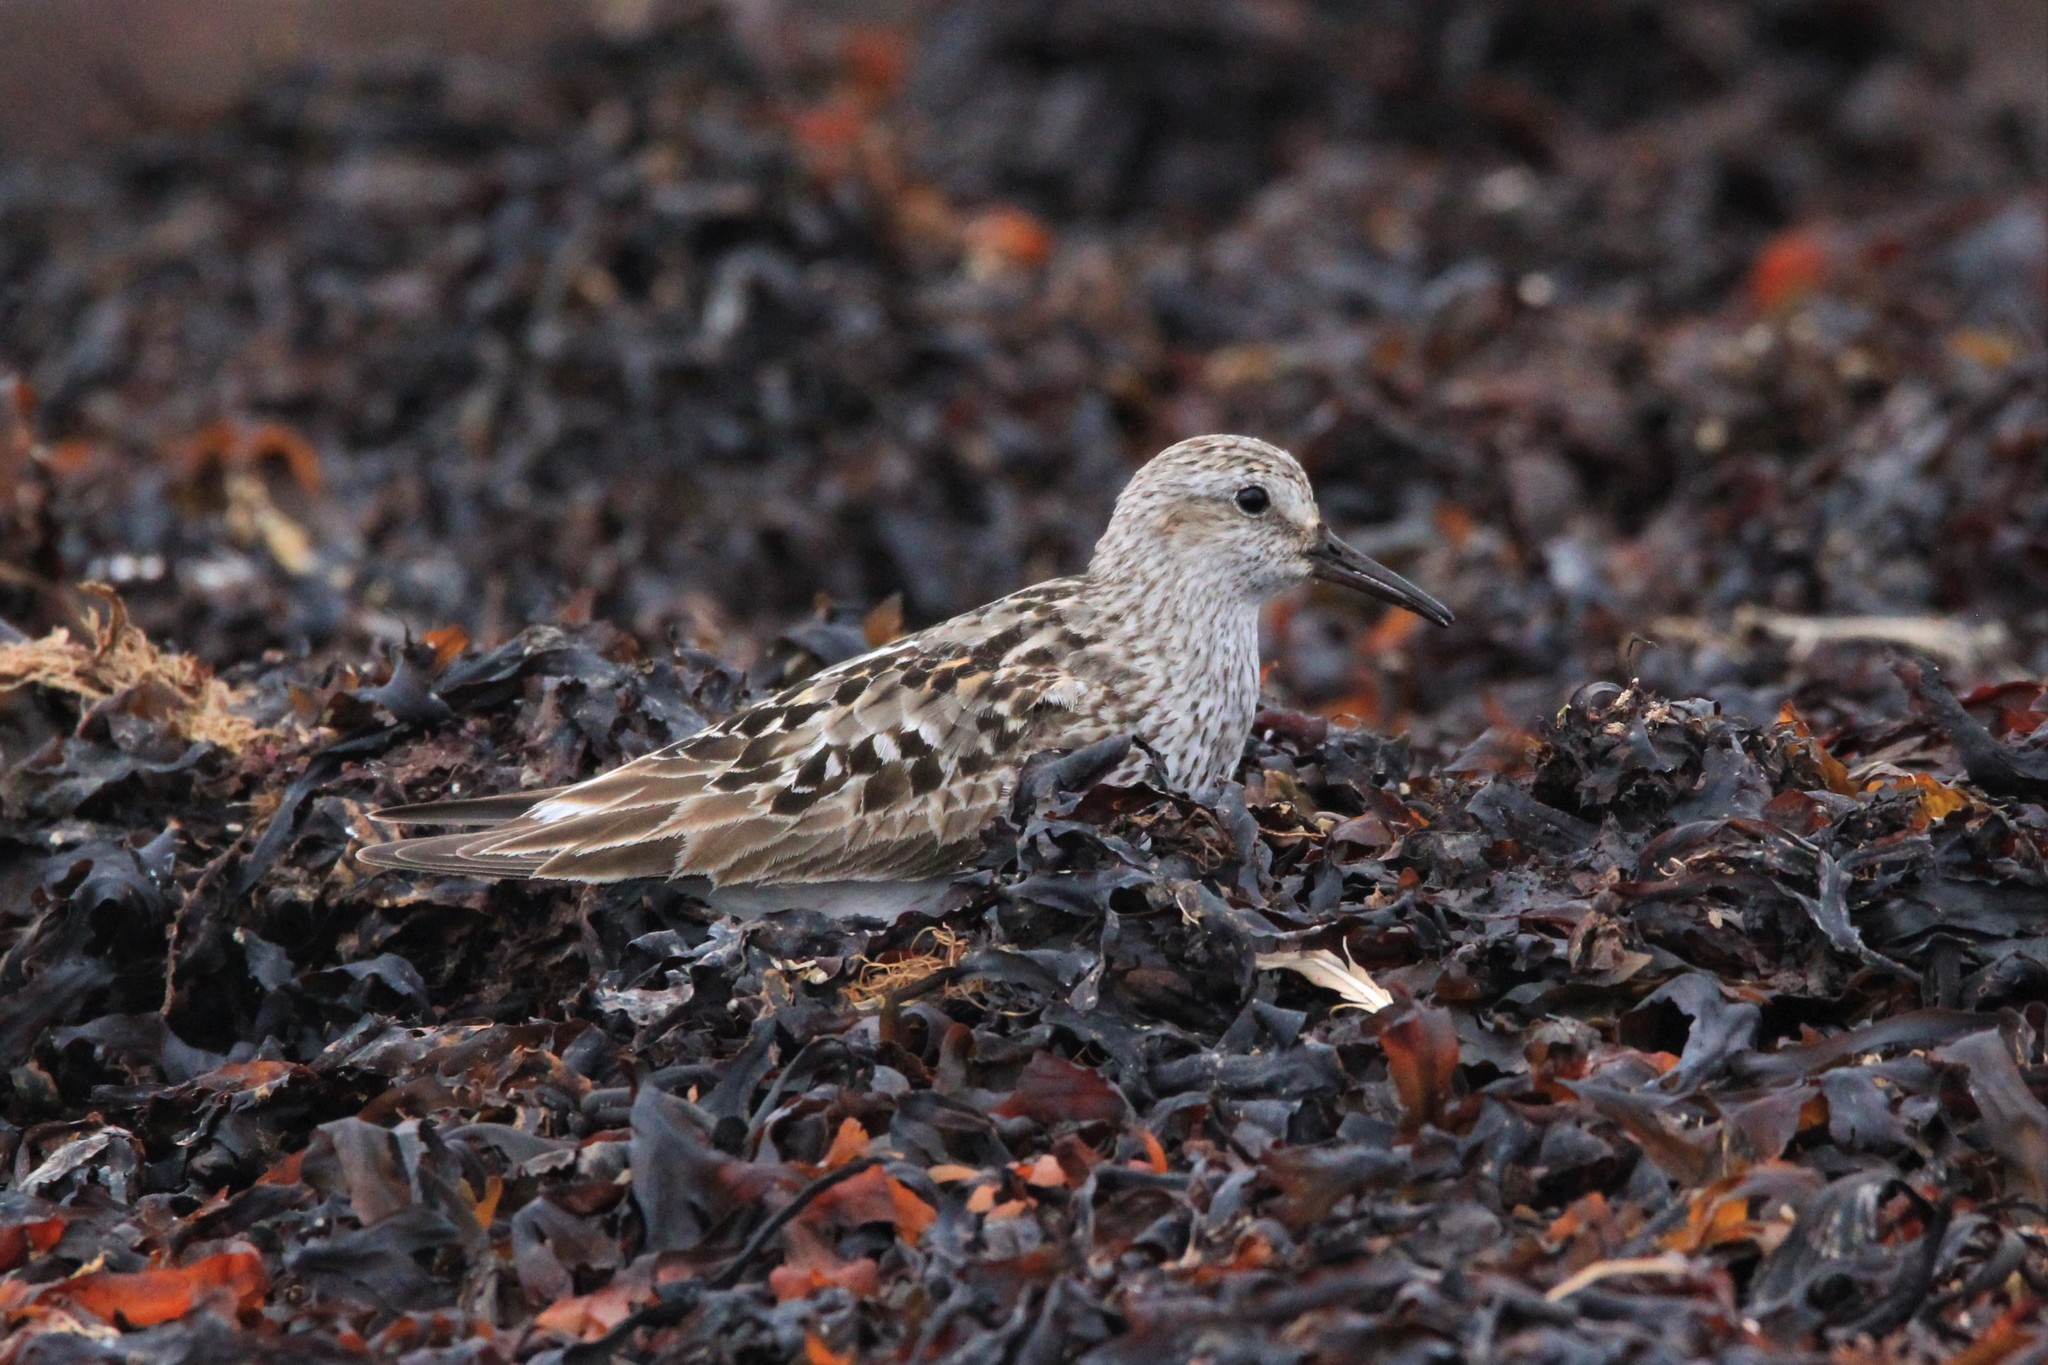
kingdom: Animalia
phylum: Chordata
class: Aves
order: Charadriiformes
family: Scolopacidae
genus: Calidris
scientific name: Calidris fuscicollis
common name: White-rumped sandpiper
